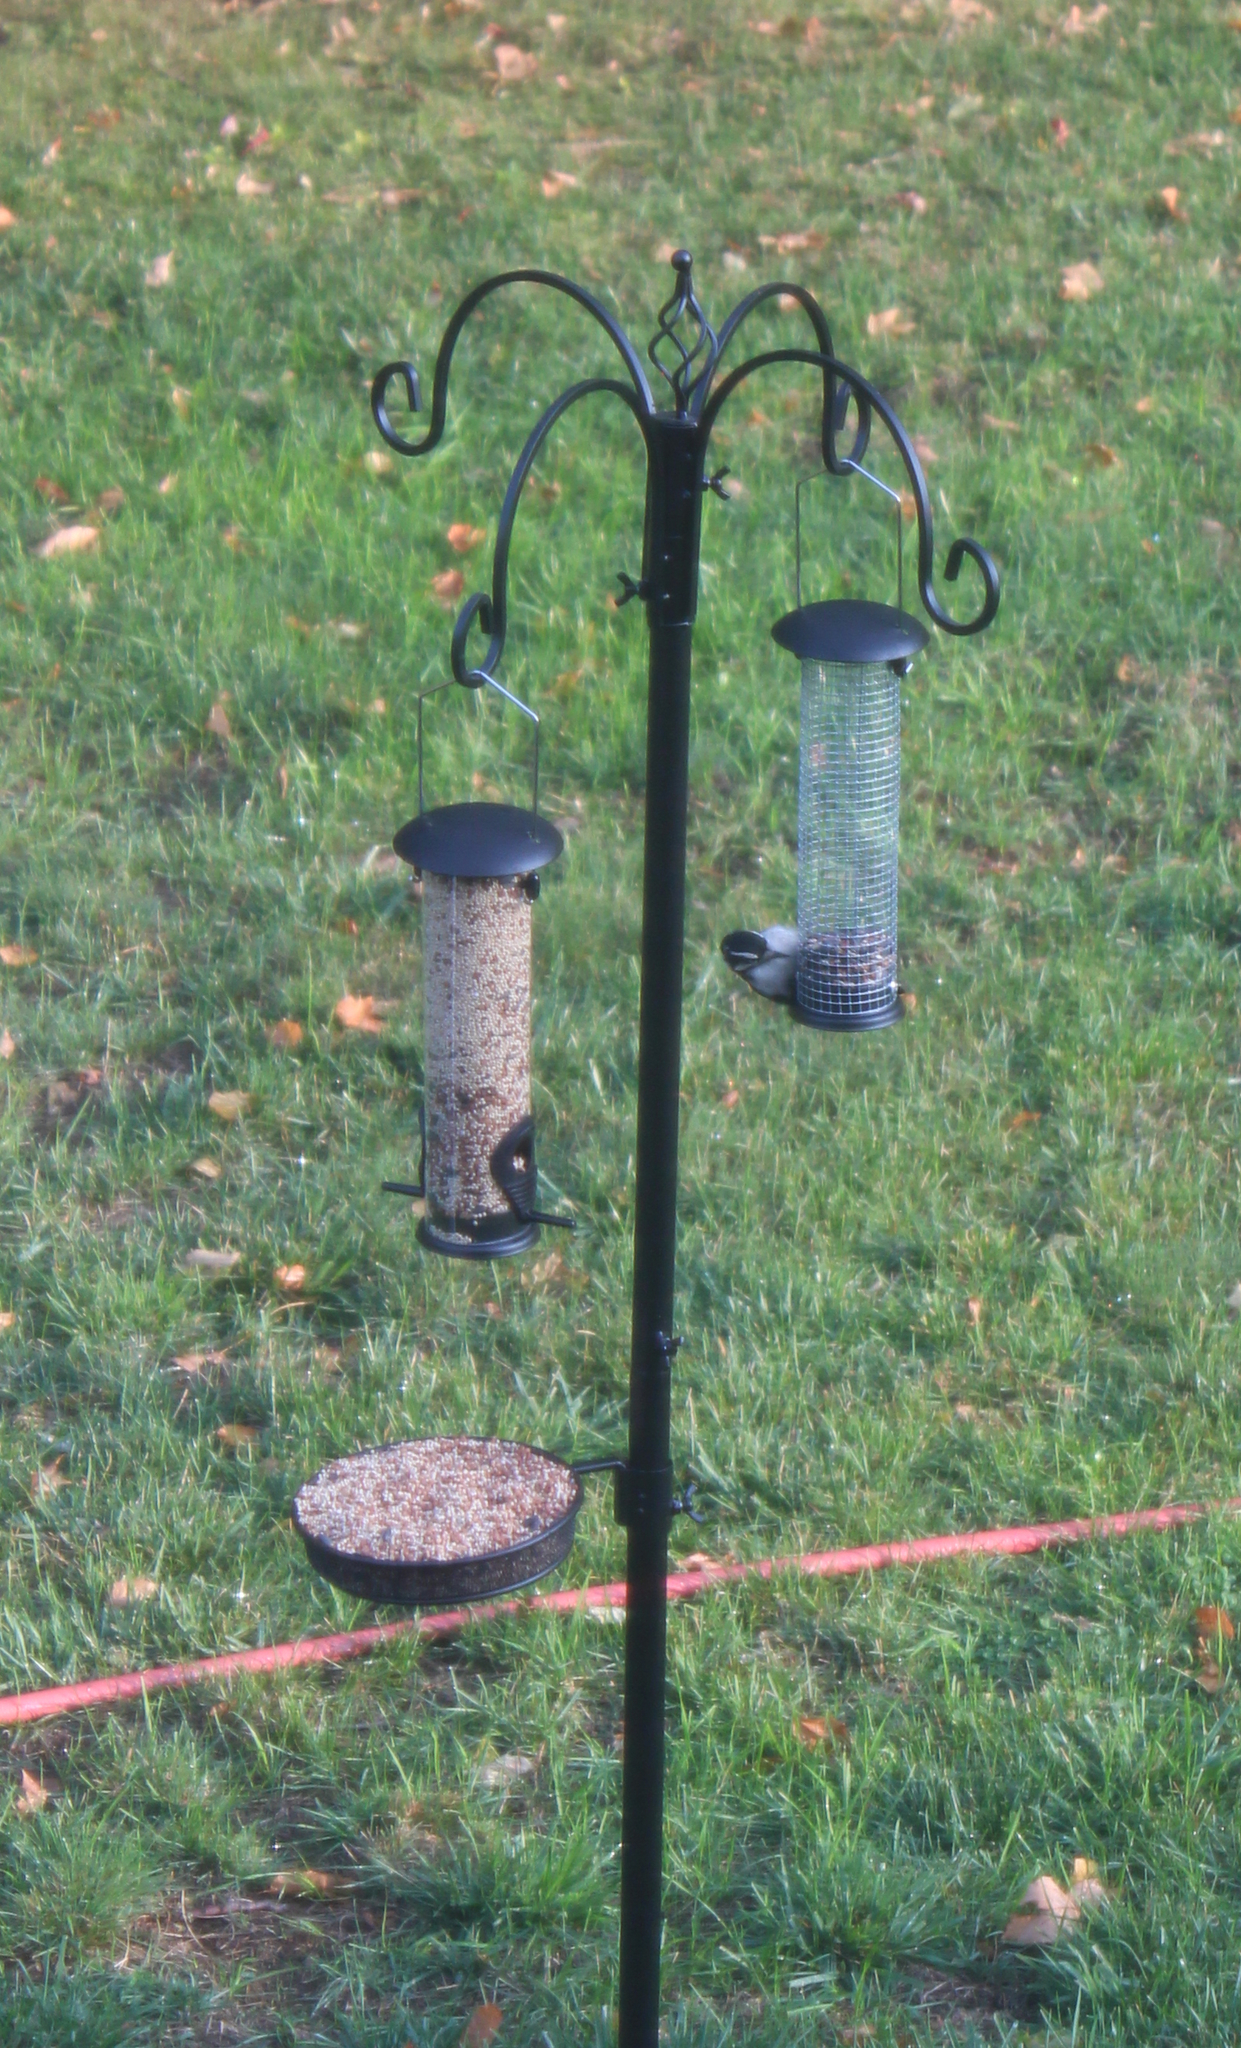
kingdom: Animalia
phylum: Chordata
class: Aves
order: Piciformes
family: Picidae
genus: Dryobates
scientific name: Dryobates pubescens
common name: Downy woodpecker
